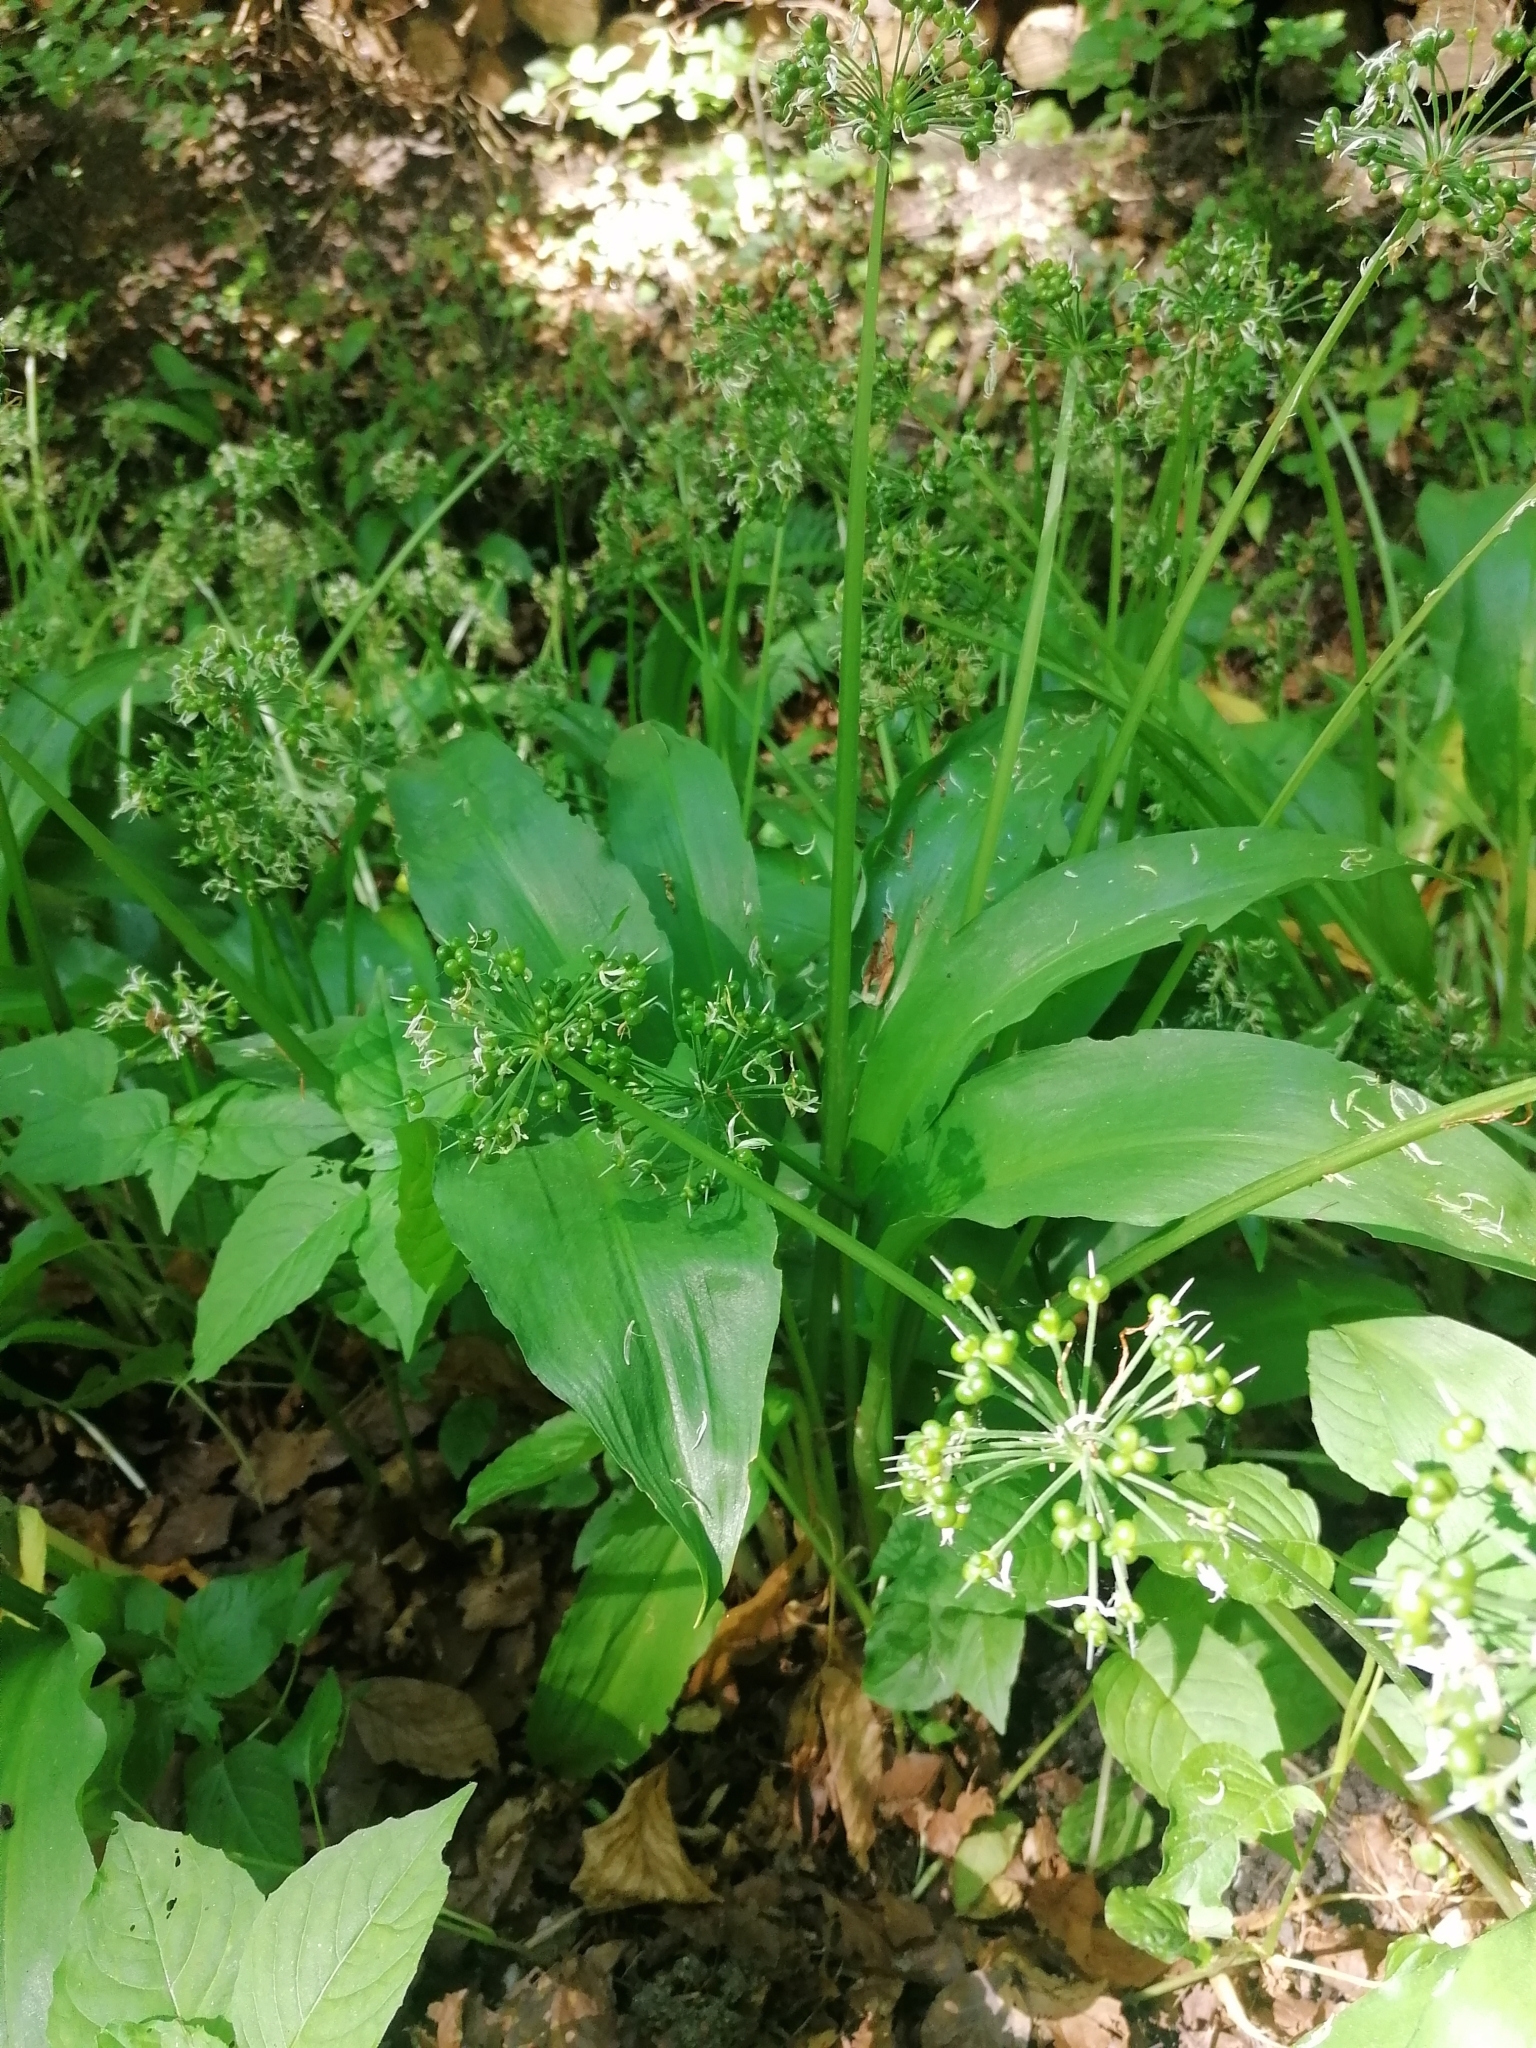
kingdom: Plantae
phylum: Tracheophyta
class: Liliopsida
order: Asparagales
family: Amaryllidaceae
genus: Allium
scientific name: Allium ursinum
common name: Ramsons
